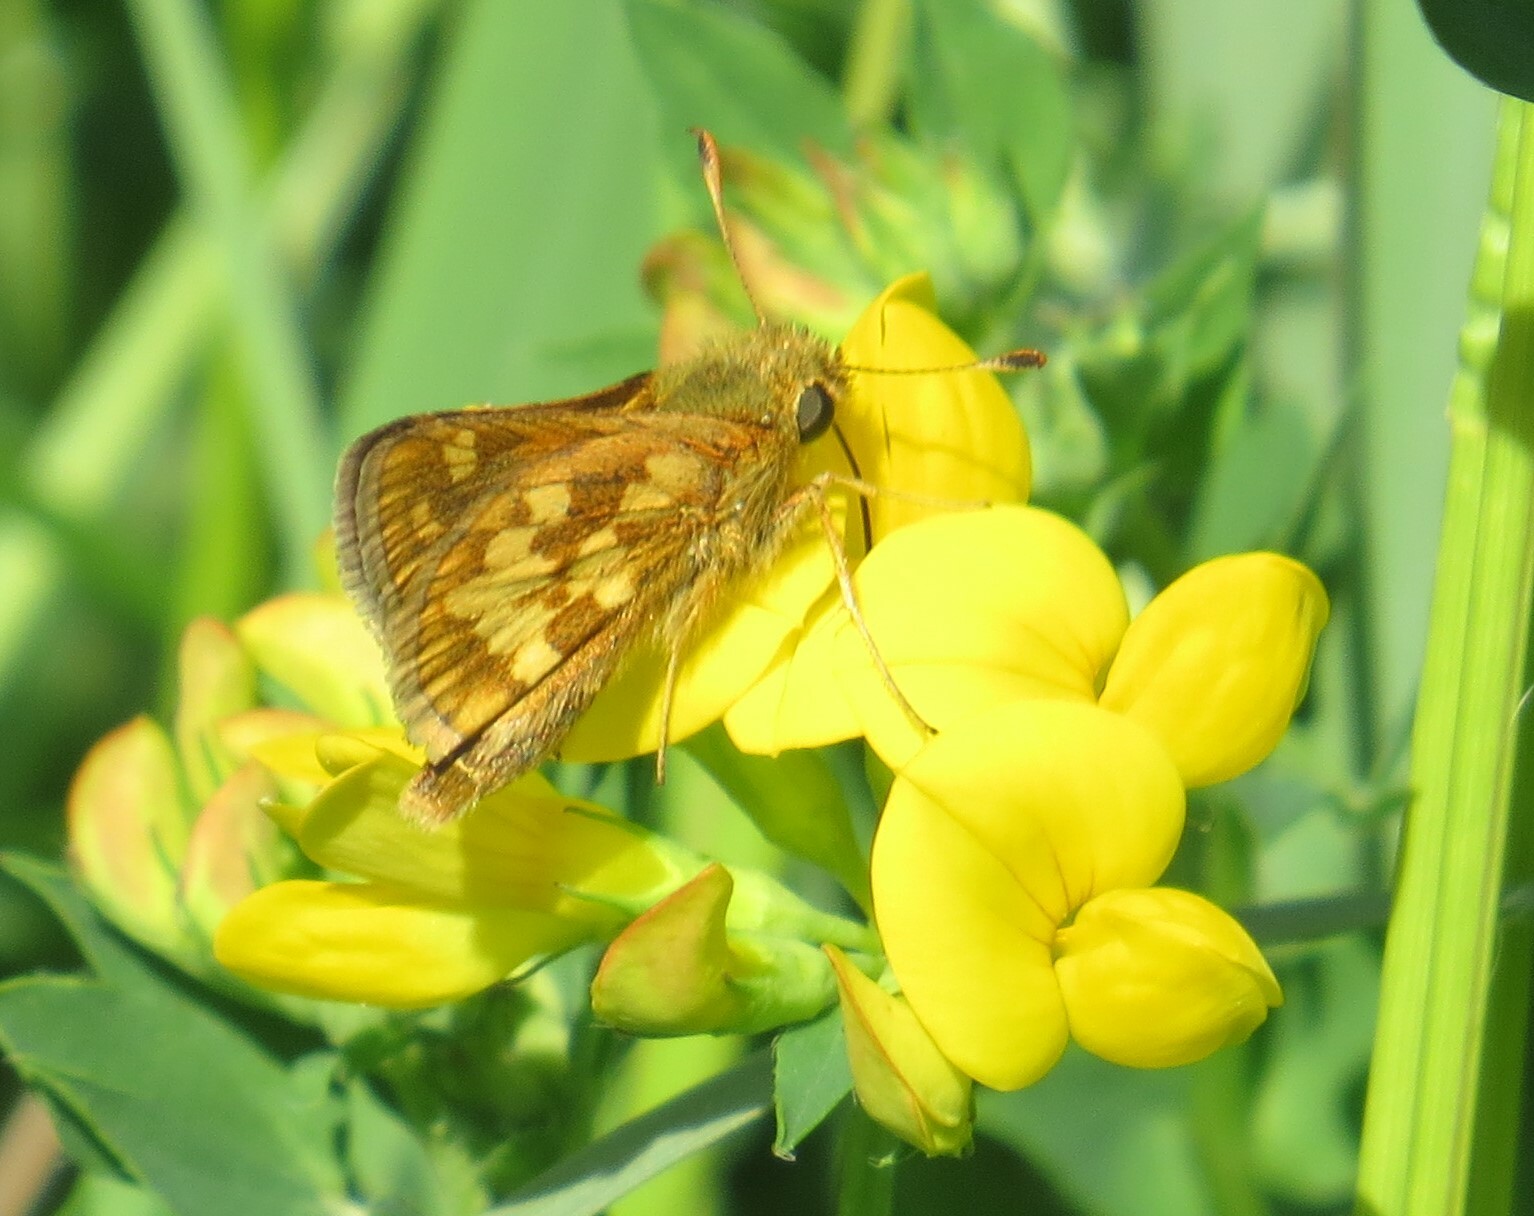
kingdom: Animalia
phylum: Arthropoda
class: Insecta
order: Lepidoptera
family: Hesperiidae
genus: Polites
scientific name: Polites coras
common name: Peck's skipper
